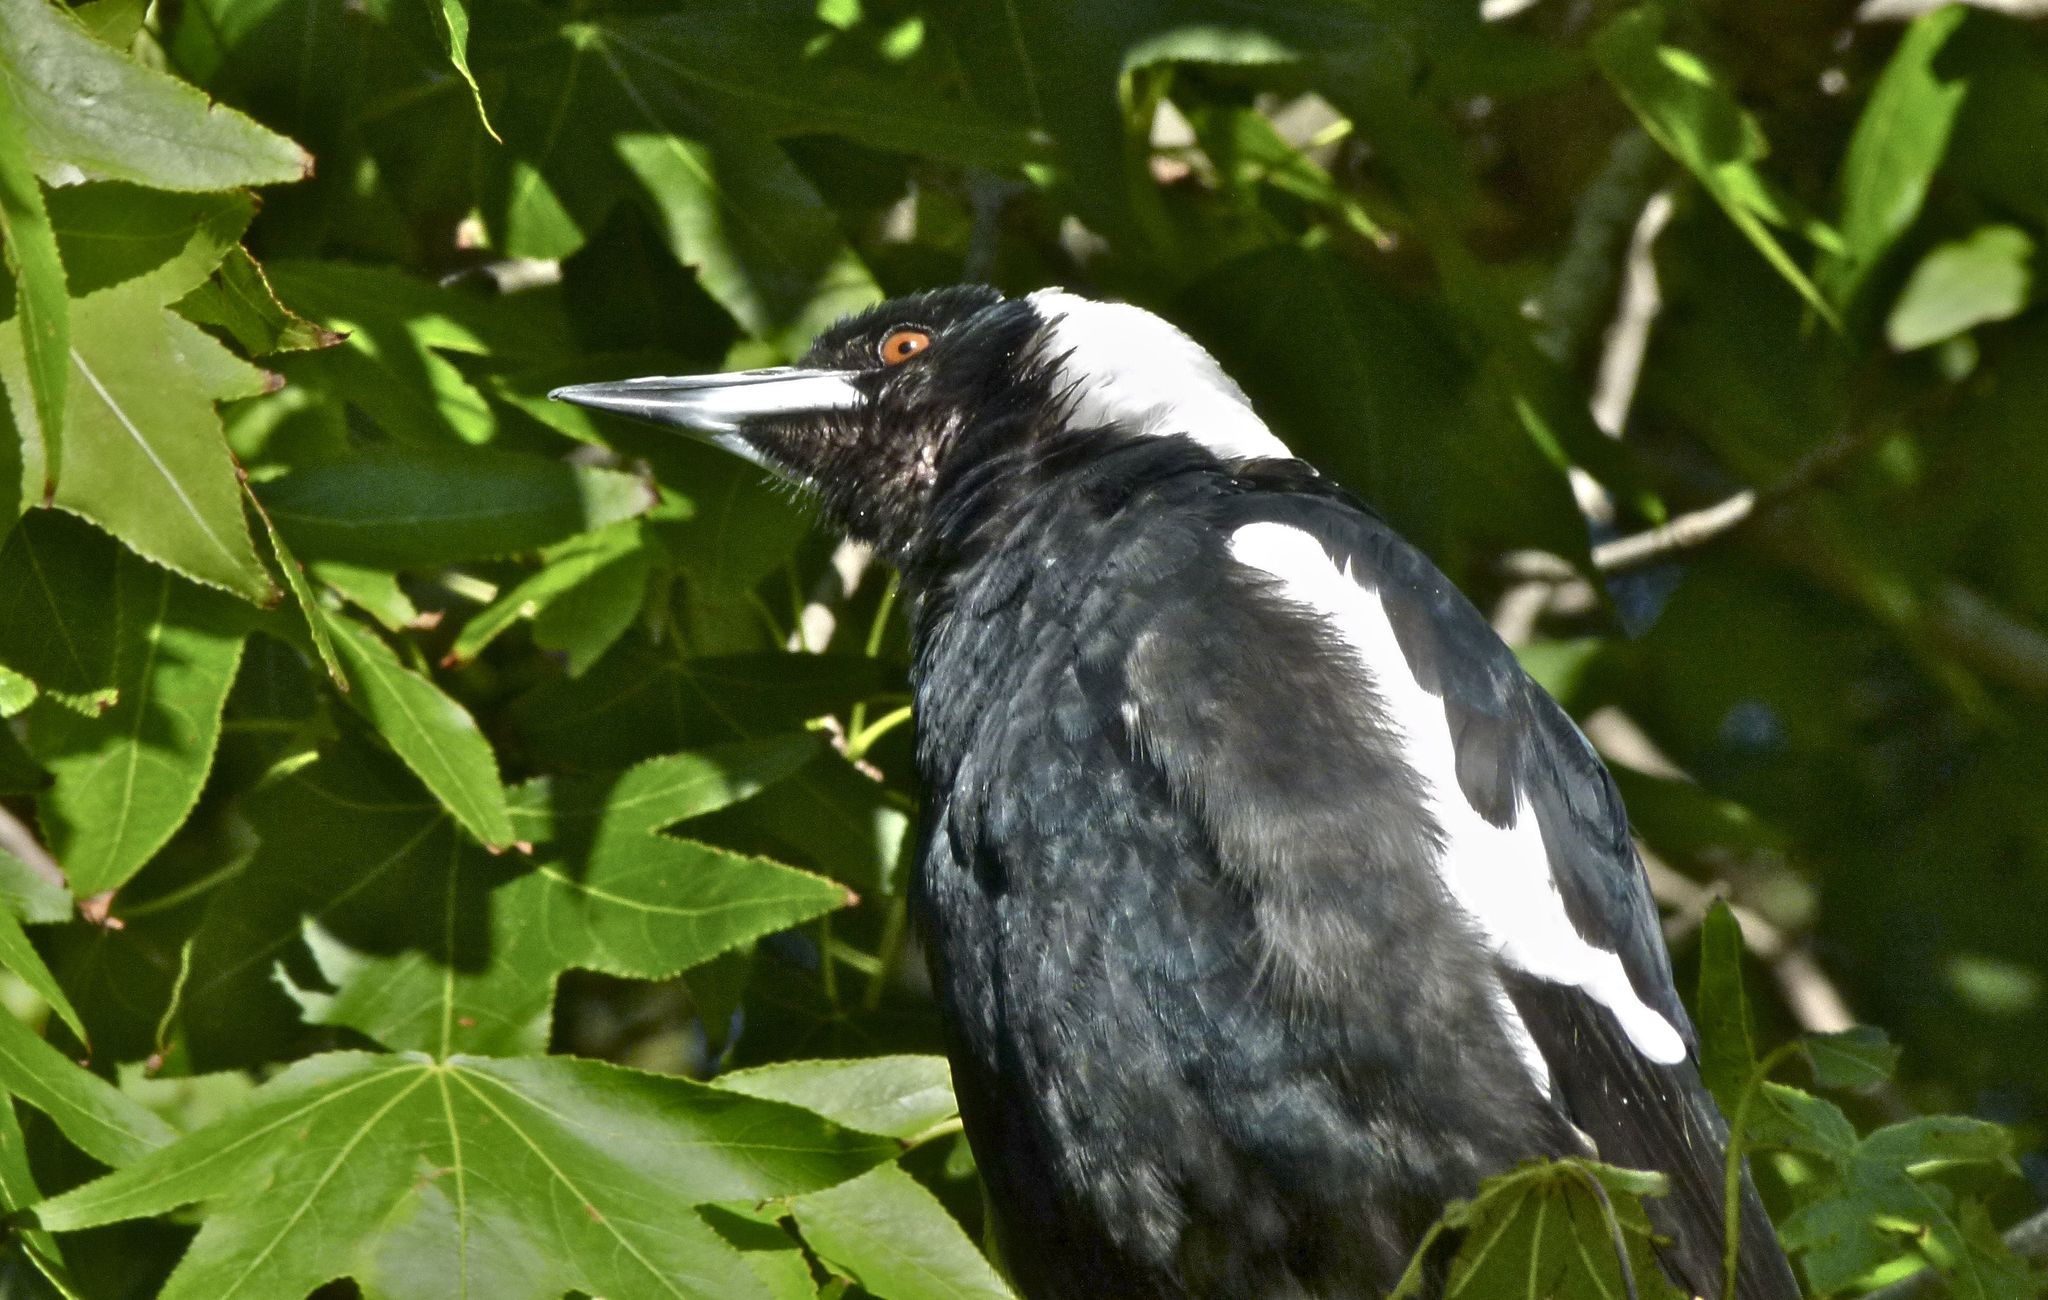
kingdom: Animalia
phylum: Chordata
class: Aves
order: Passeriformes
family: Cracticidae
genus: Gymnorhina
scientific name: Gymnorhina tibicen
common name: Australian magpie
